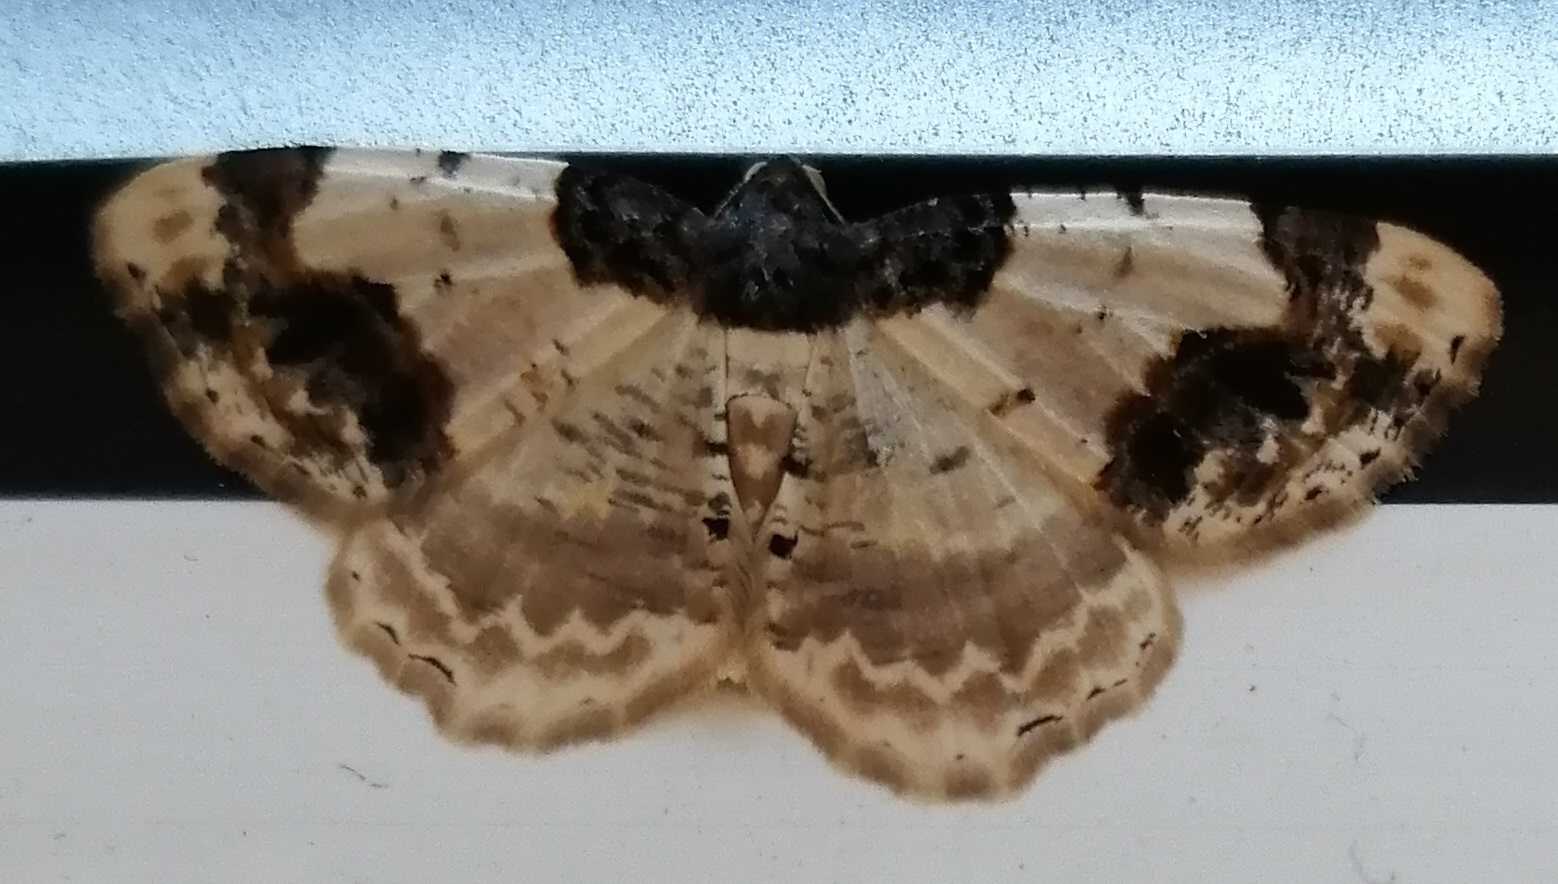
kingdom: Animalia
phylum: Arthropoda
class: Insecta
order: Lepidoptera
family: Geometridae
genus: Ligdia
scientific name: Ligdia adustata
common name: Scorched carpet
